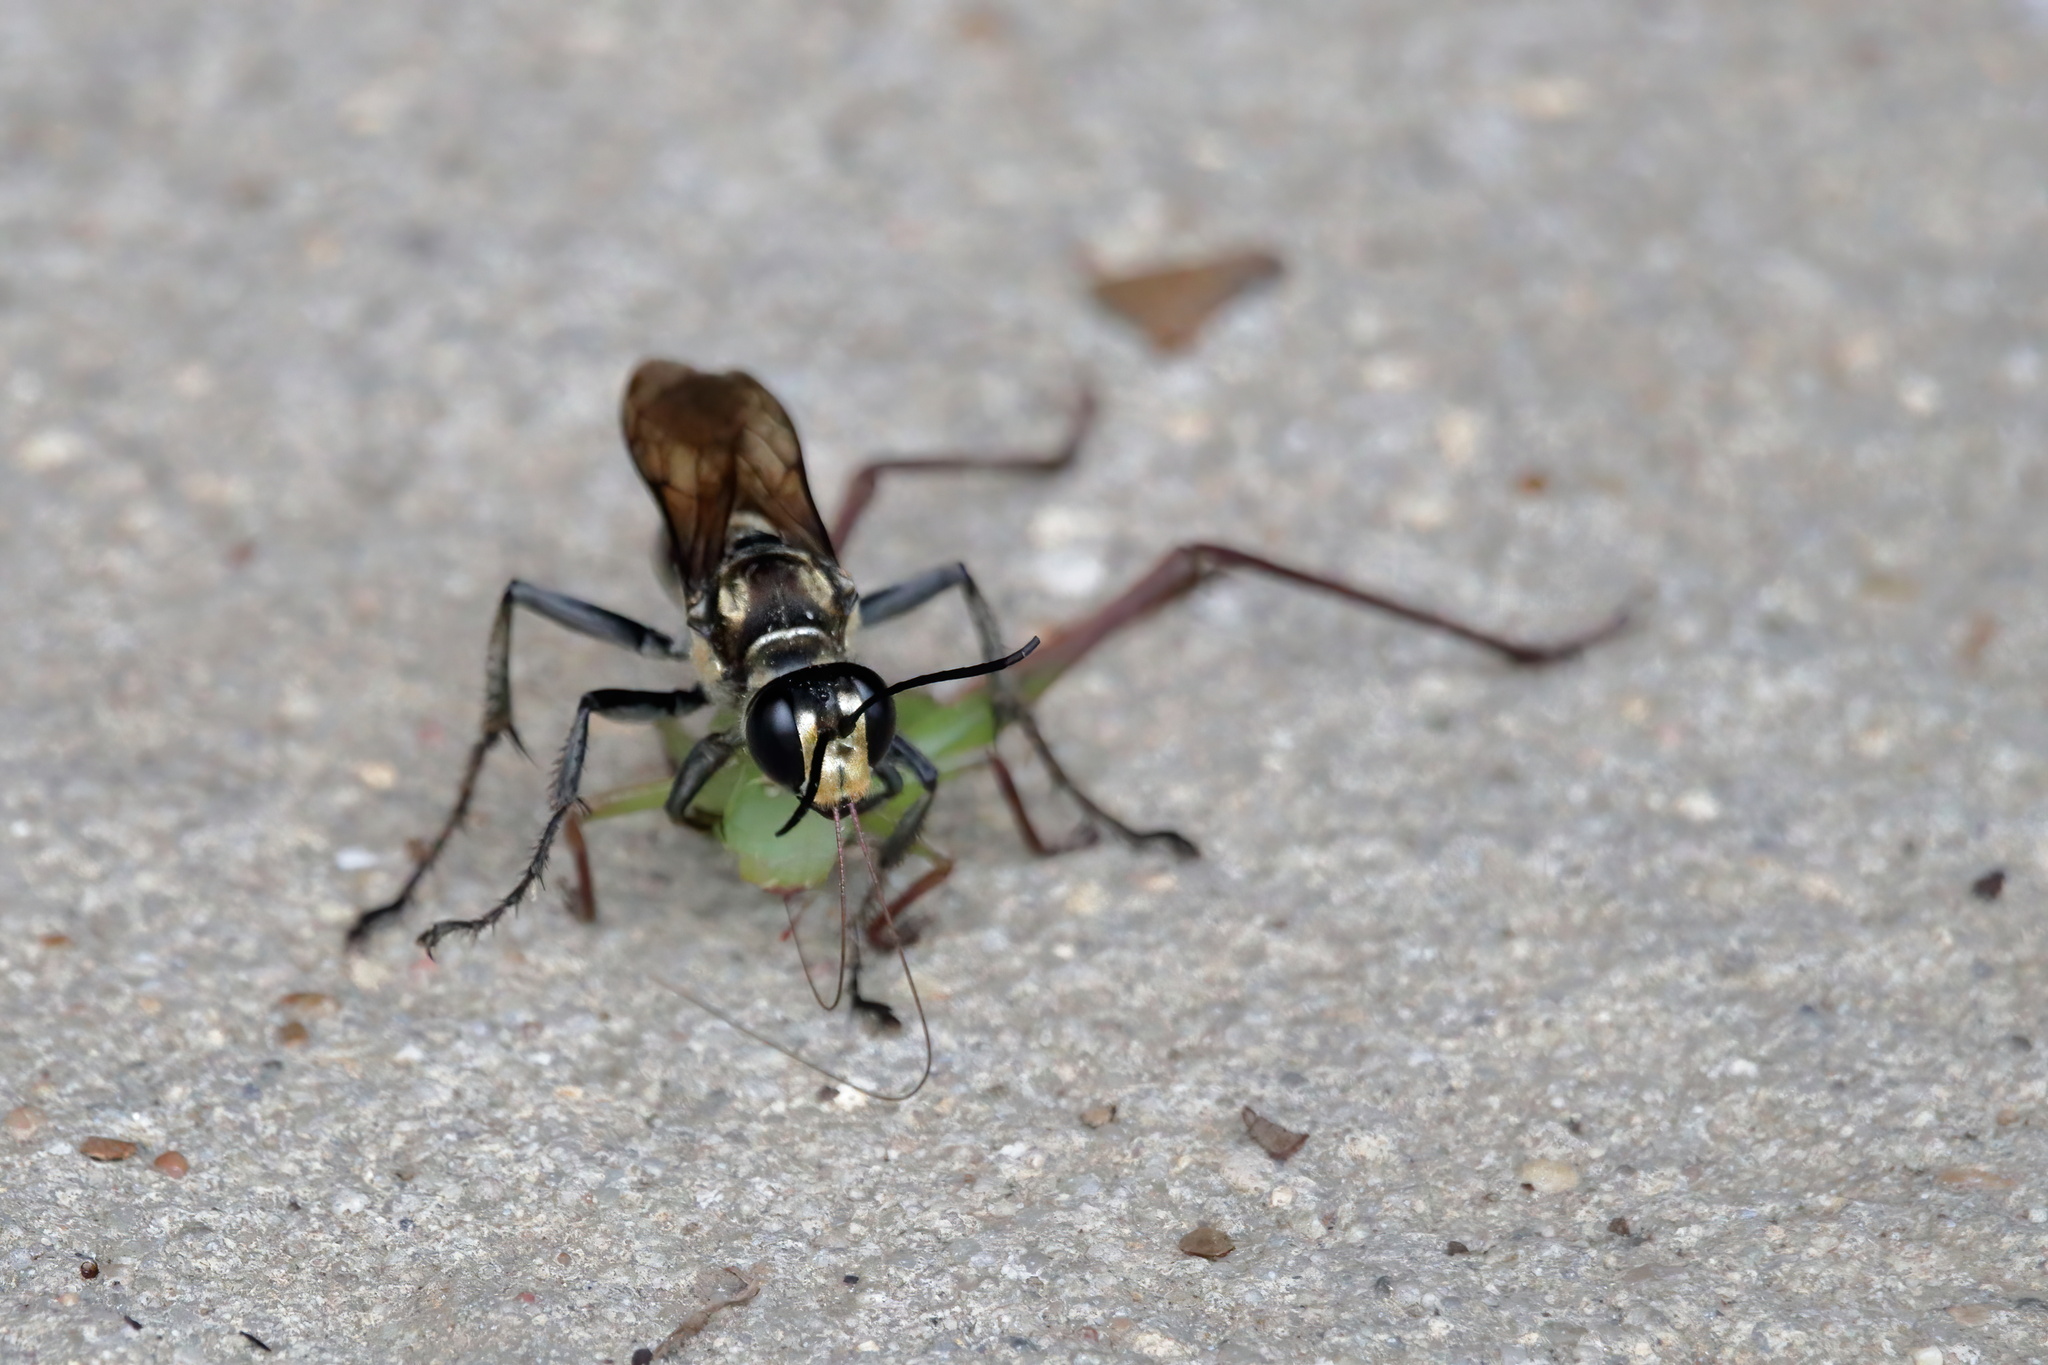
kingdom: Animalia
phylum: Arthropoda
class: Insecta
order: Hymenoptera
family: Sphecidae
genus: Sphex
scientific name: Sphex habenus
